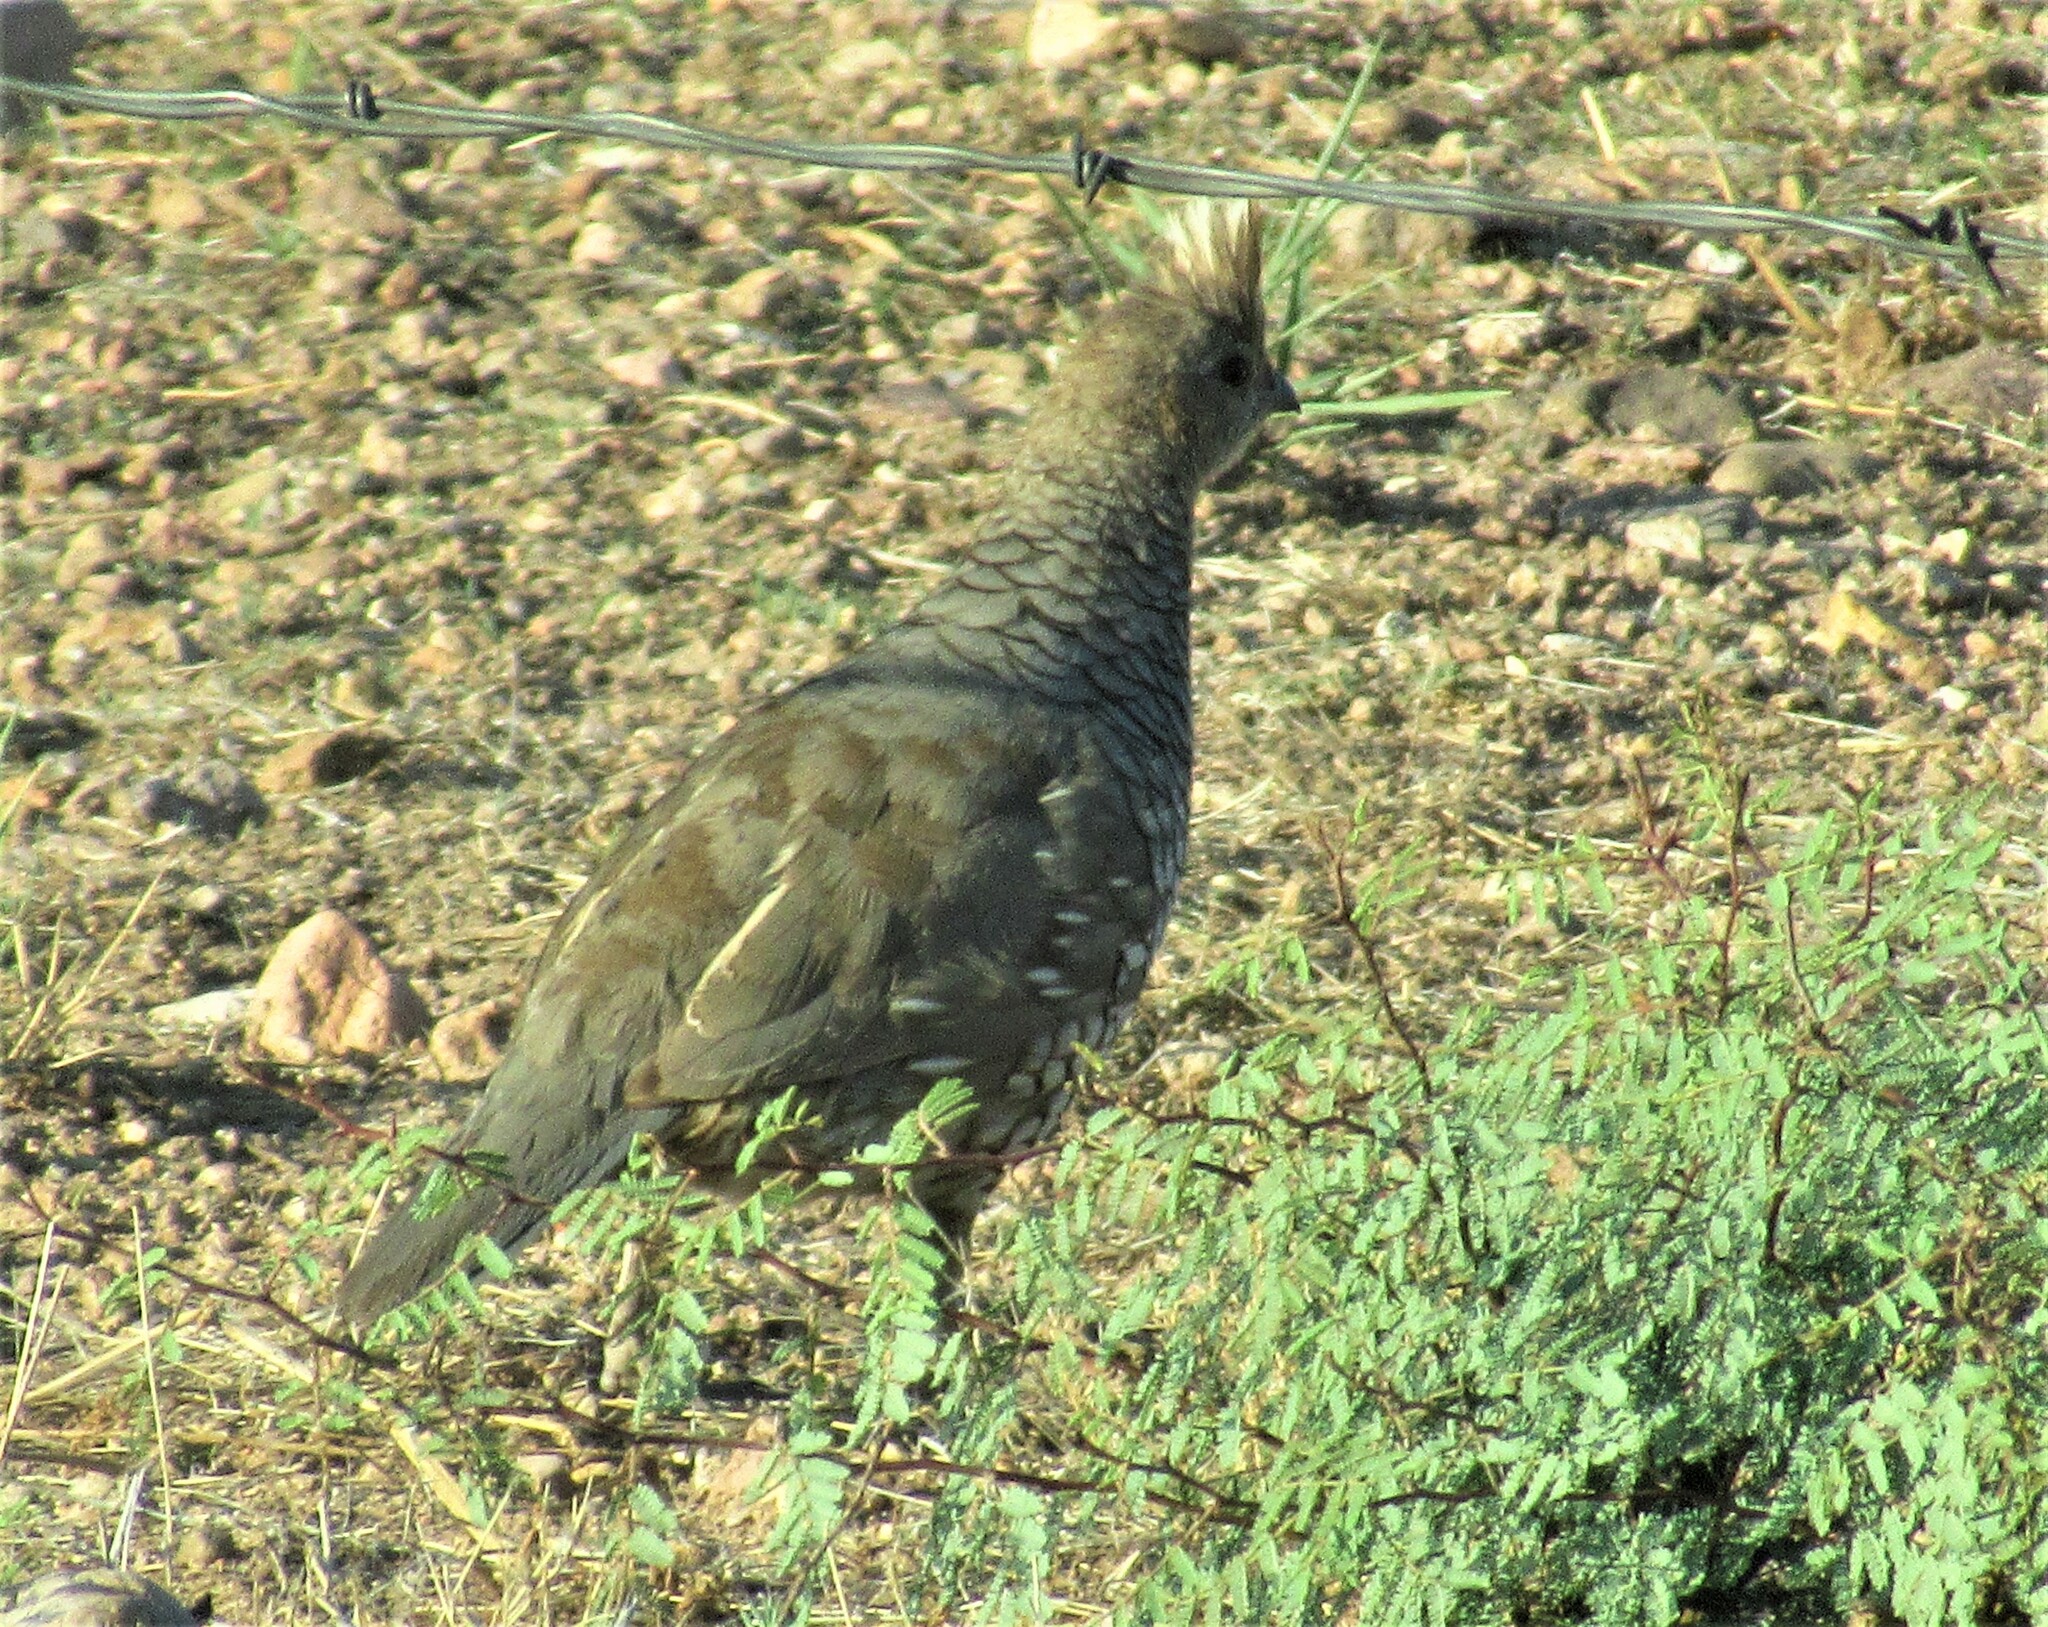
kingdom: Animalia
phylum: Chordata
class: Aves
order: Galliformes
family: Odontophoridae
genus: Callipepla
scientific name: Callipepla squamata
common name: Scaled quail
